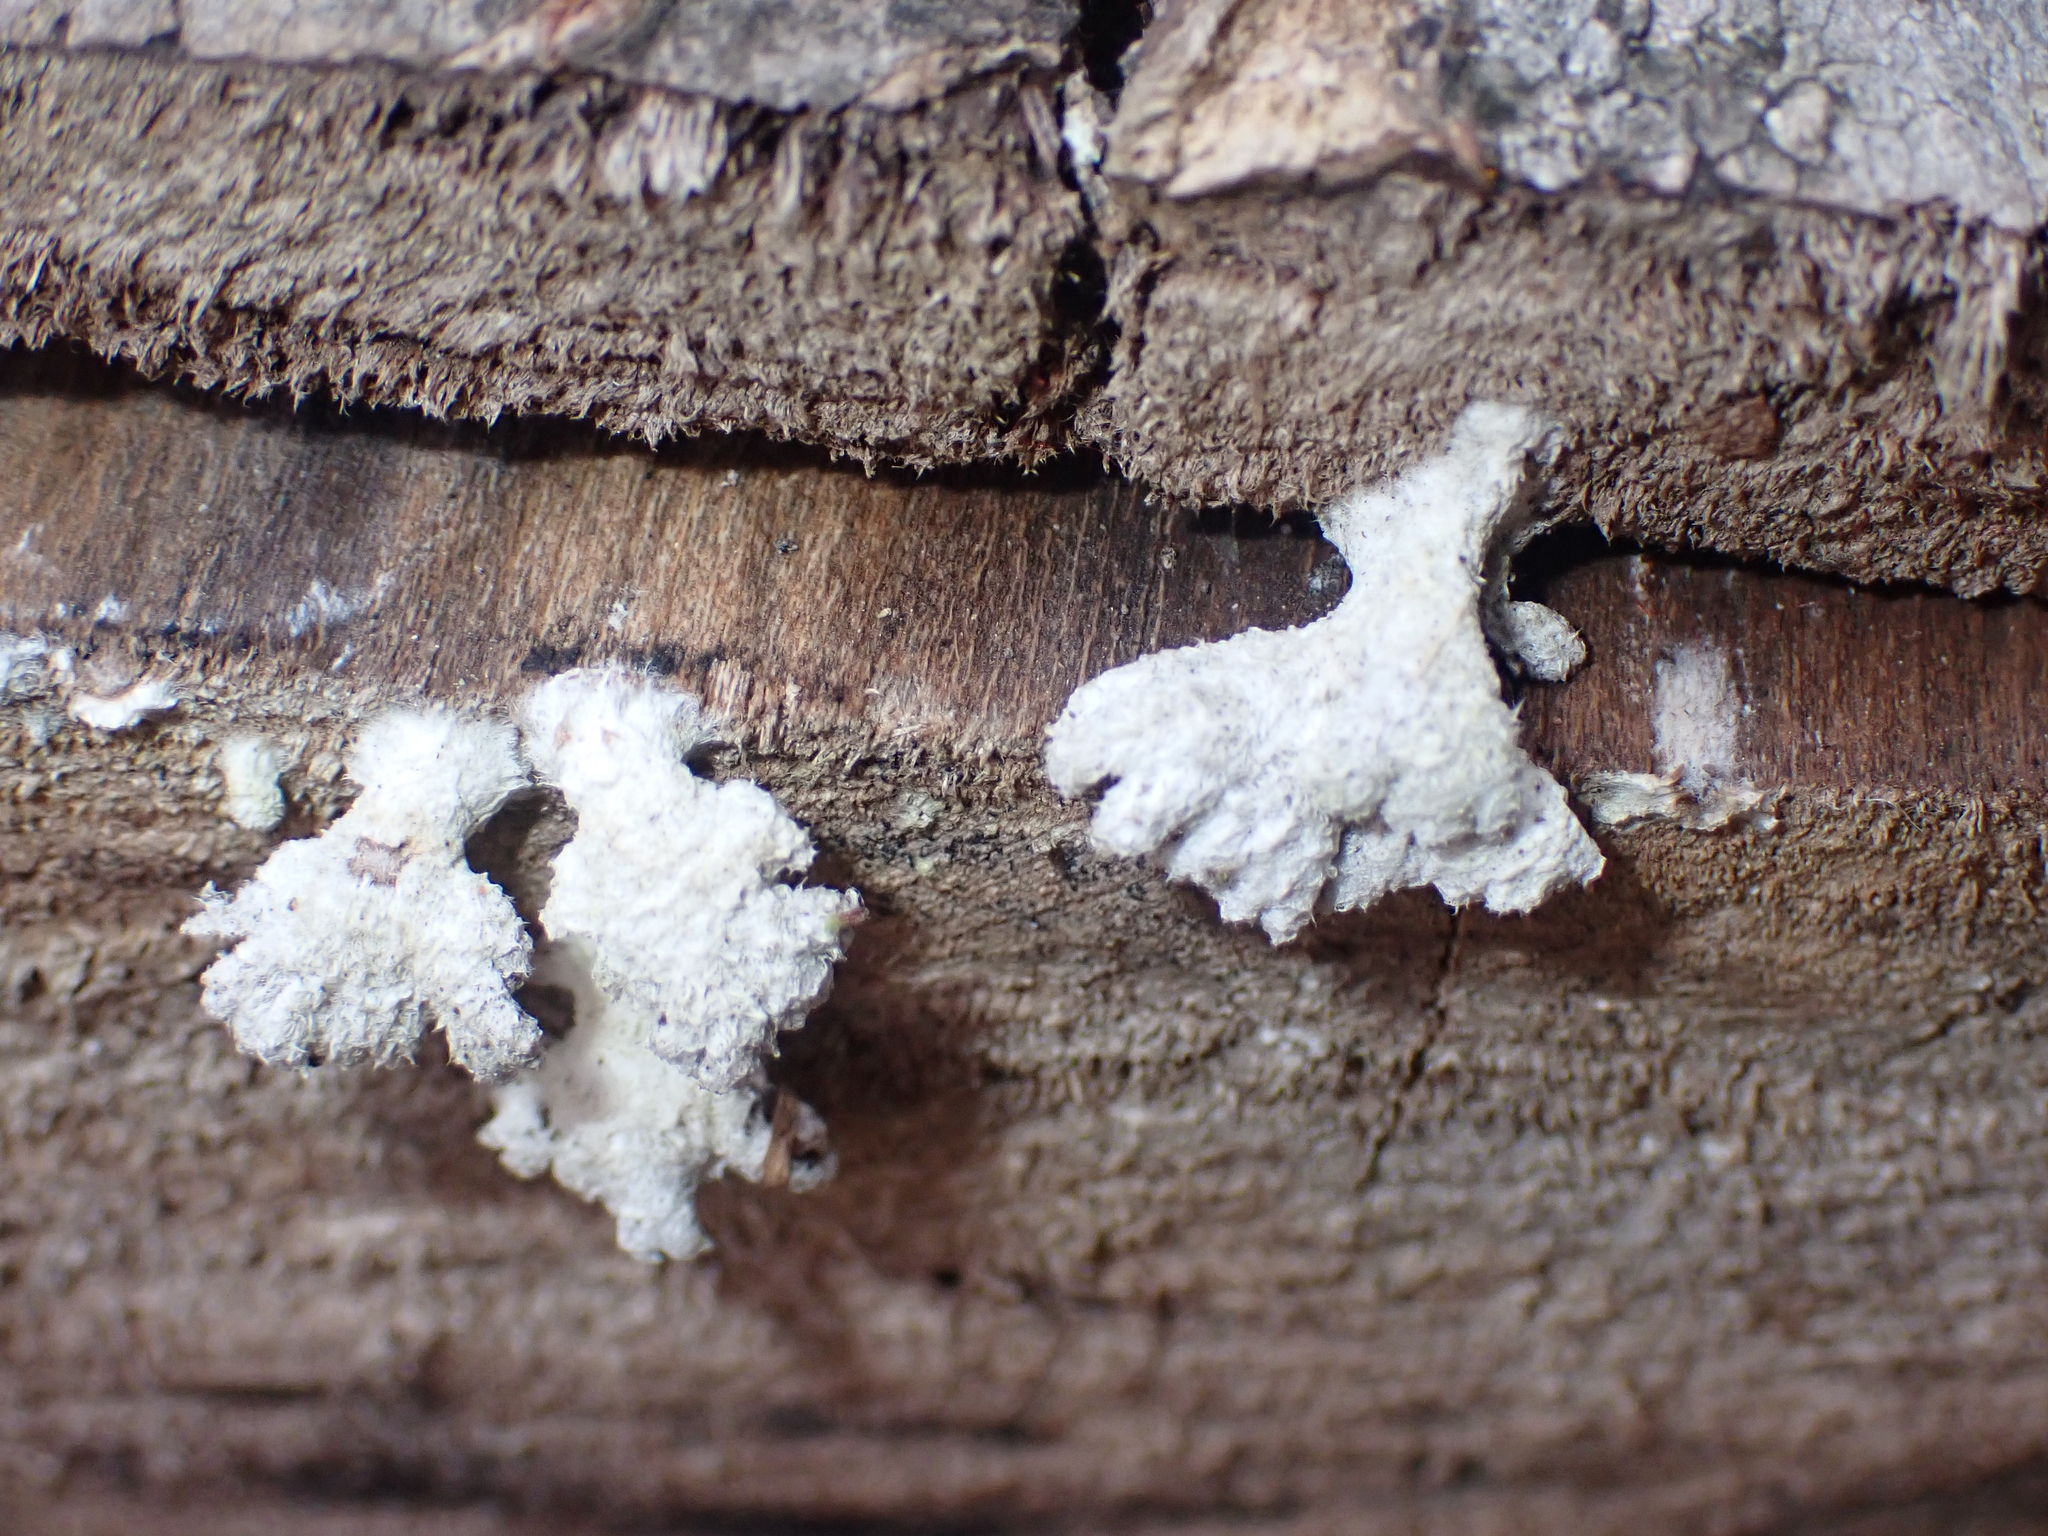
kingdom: Fungi
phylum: Basidiomycota
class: Agaricomycetes
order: Agaricales
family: Schizophyllaceae
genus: Schizophyllum
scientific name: Schizophyllum commune
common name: Common porecrust
